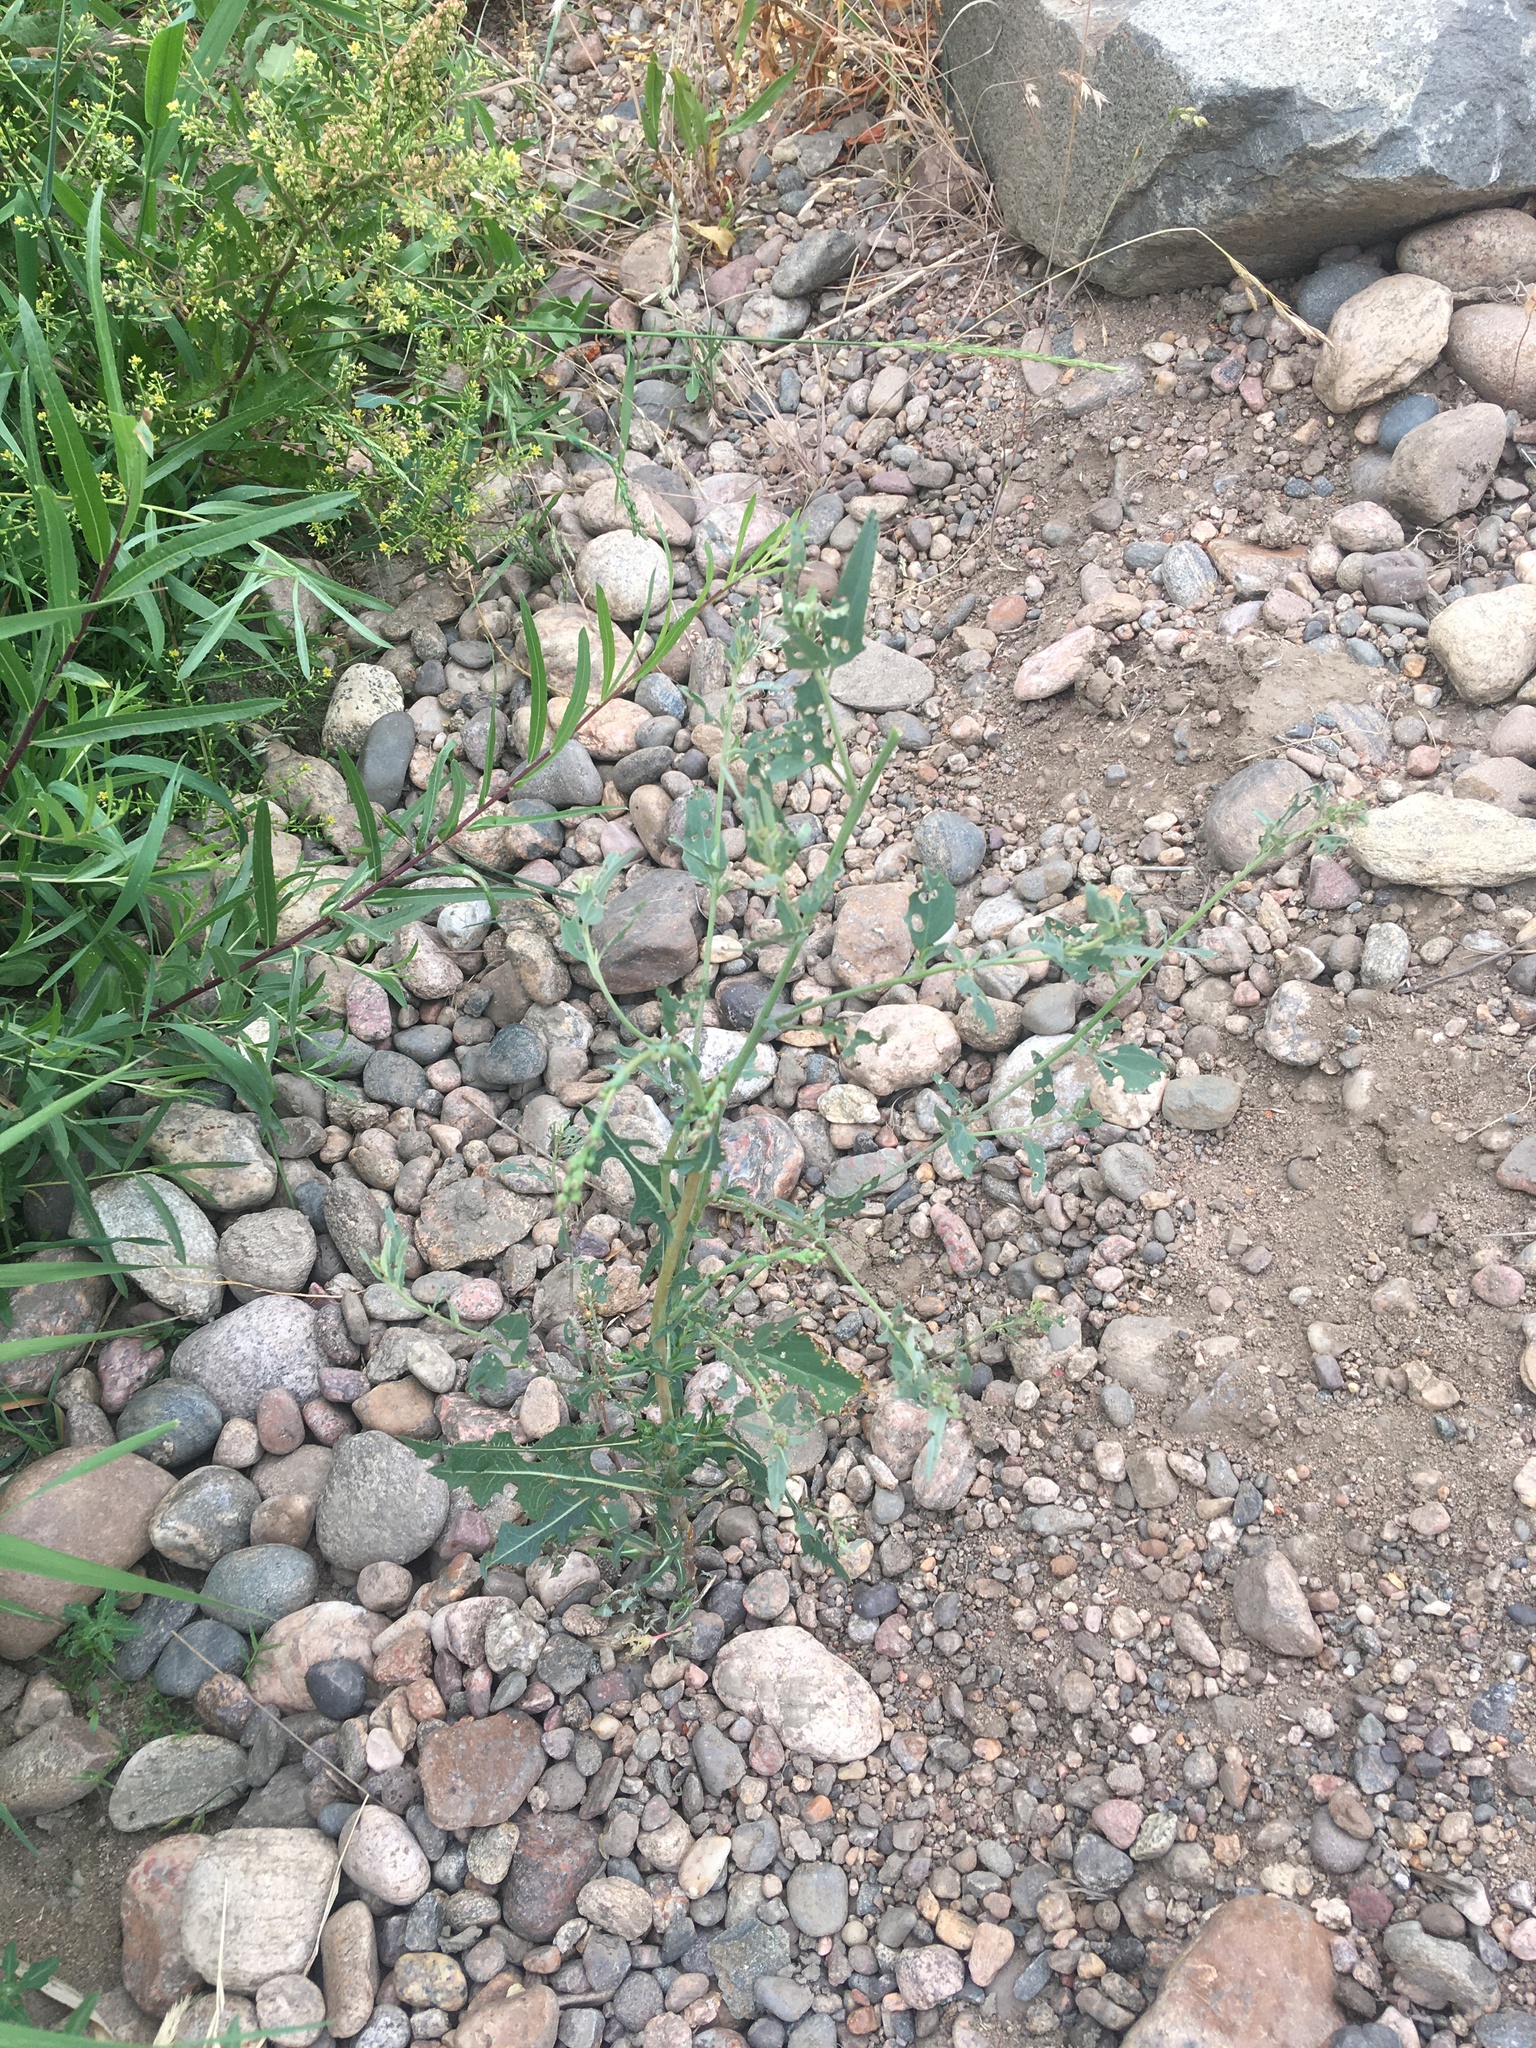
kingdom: Plantae
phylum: Tracheophyta
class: Magnoliopsida
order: Asterales
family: Asteraceae
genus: Lactuca
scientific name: Lactuca serriola
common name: Prickly lettuce
